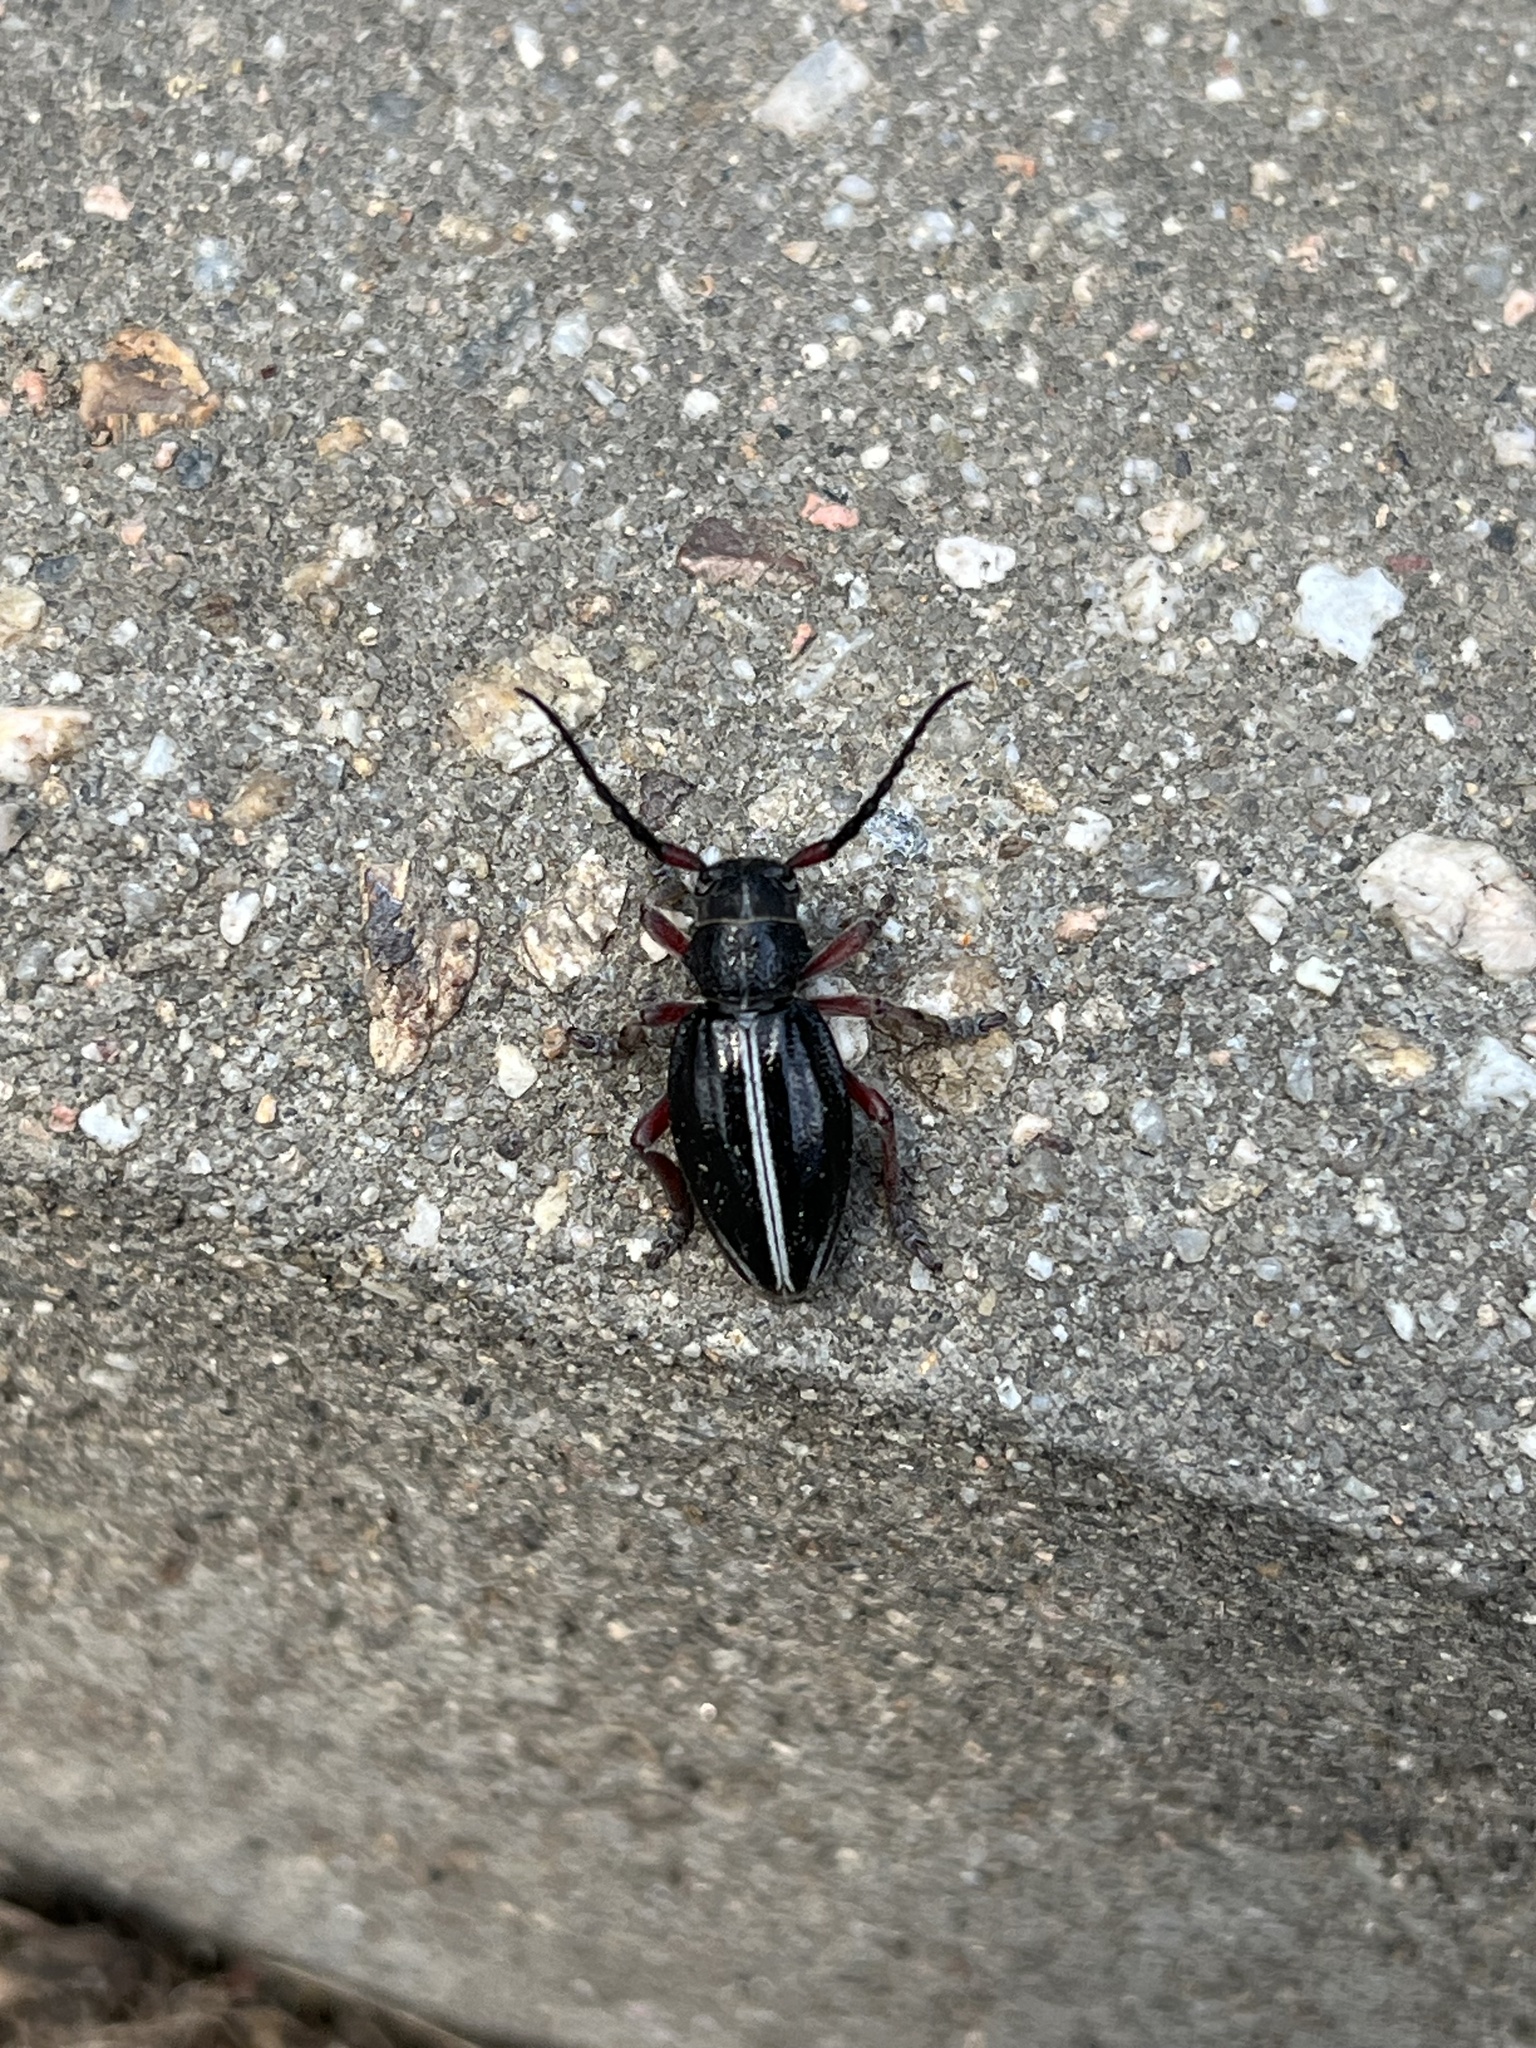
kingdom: Animalia
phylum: Arthropoda
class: Insecta
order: Coleoptera
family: Cerambycidae
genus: Dorcadion
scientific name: Dorcadion pedestre
